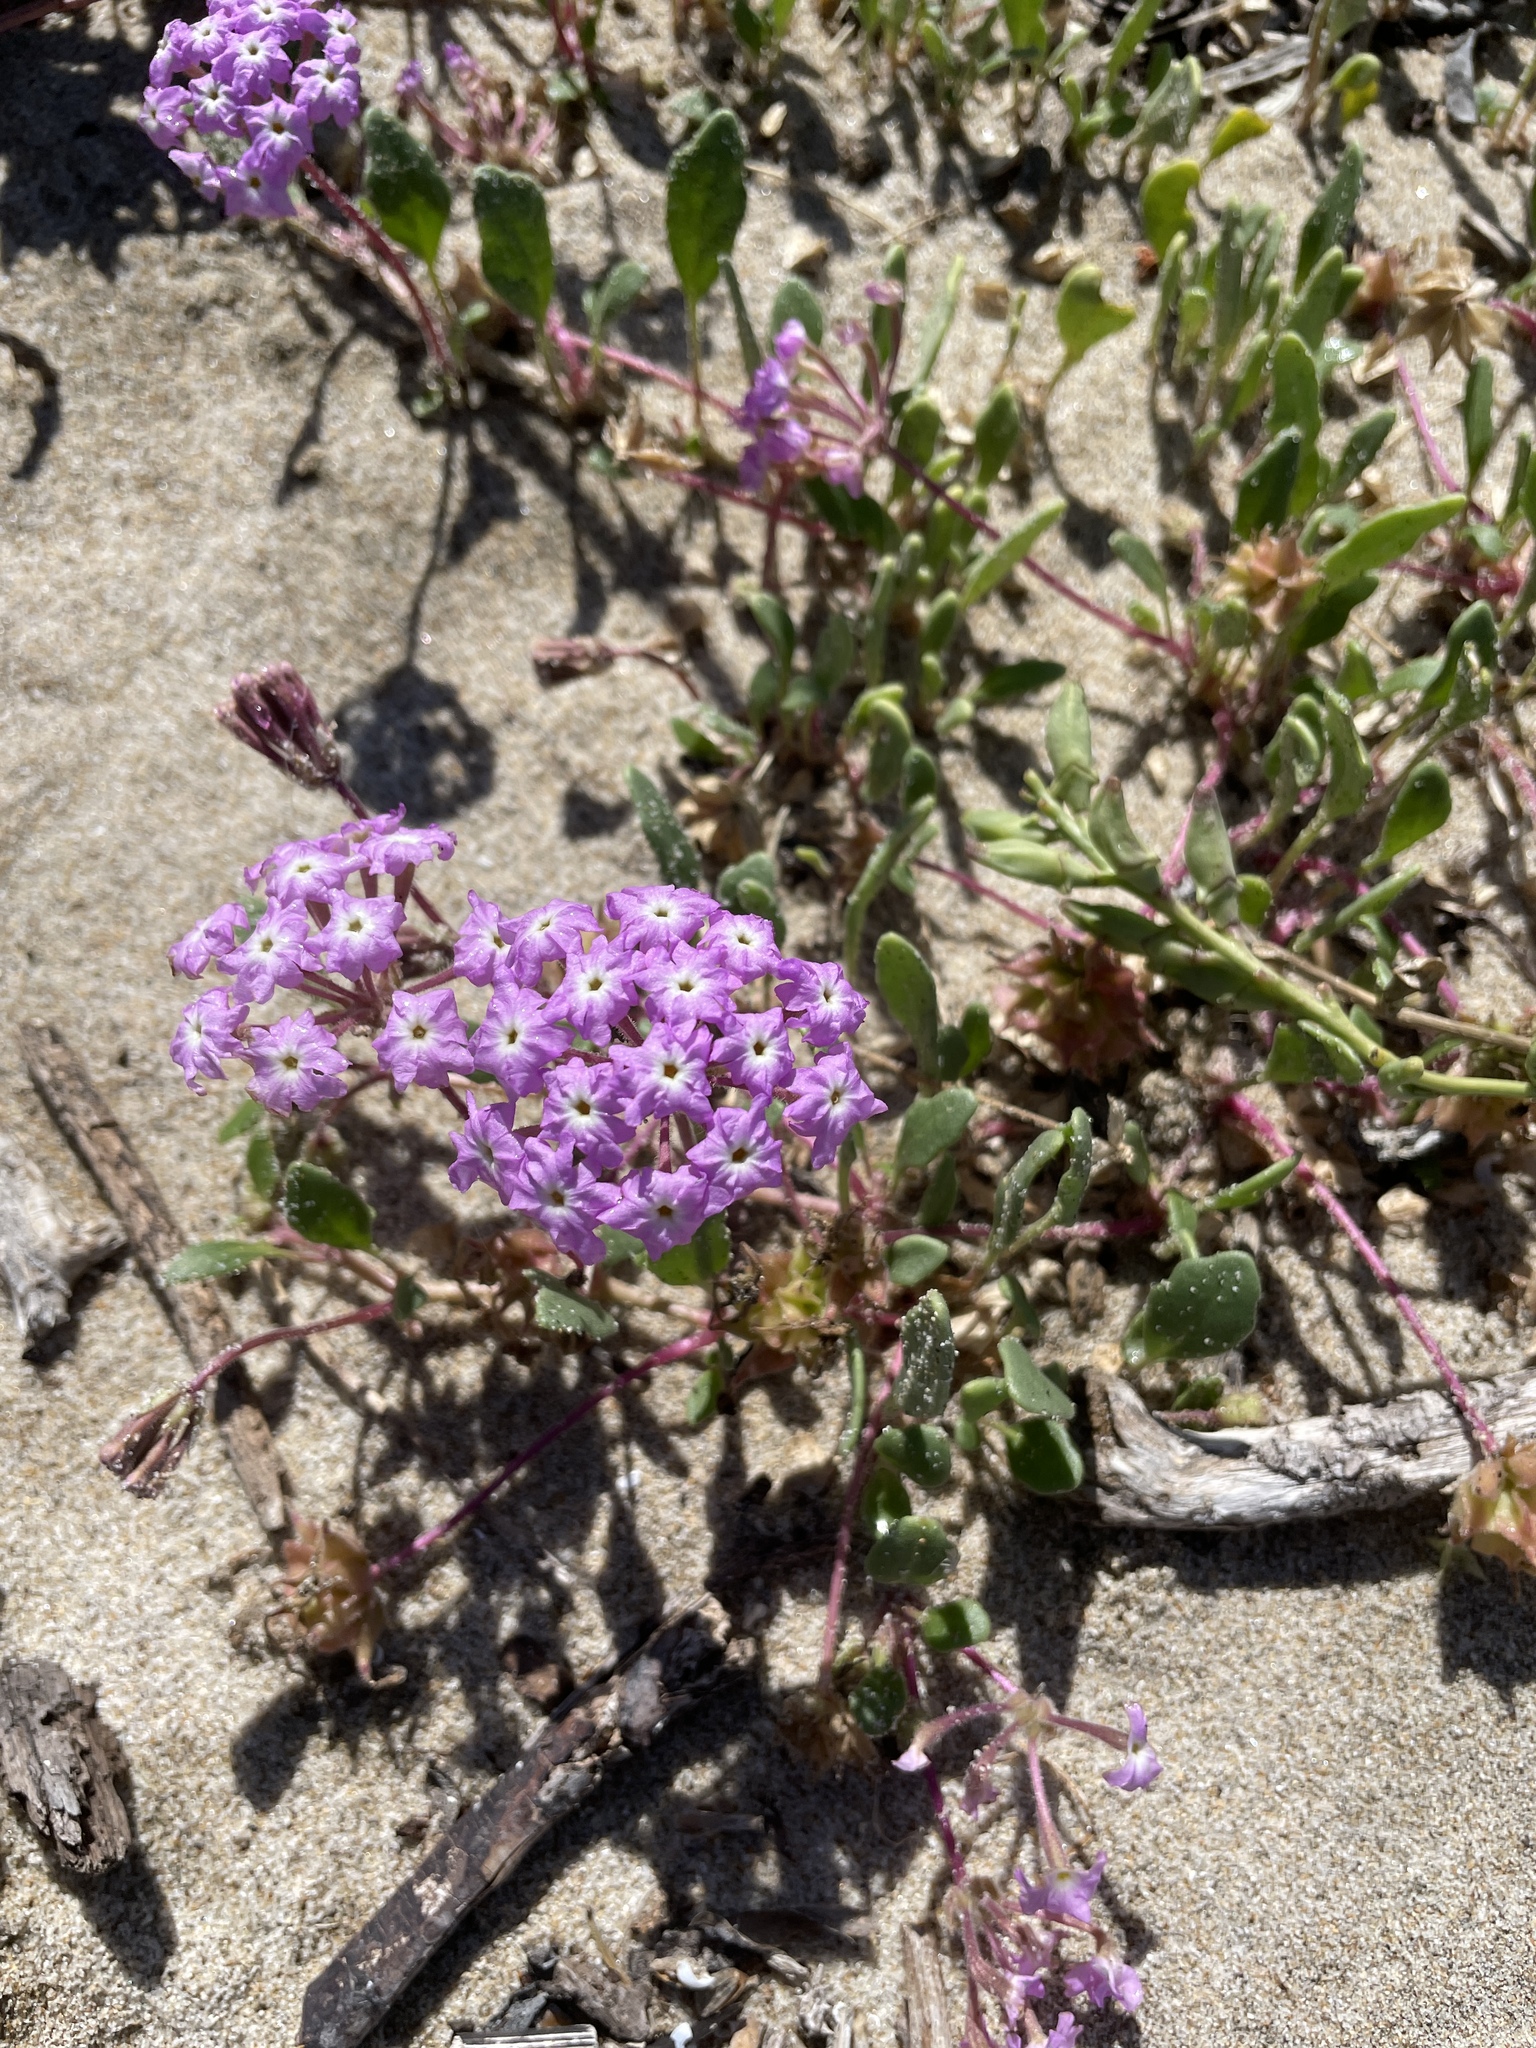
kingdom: Plantae
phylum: Tracheophyta
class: Magnoliopsida
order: Caryophyllales
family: Nyctaginaceae
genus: Abronia
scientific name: Abronia umbellata
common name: Sand-verbena
